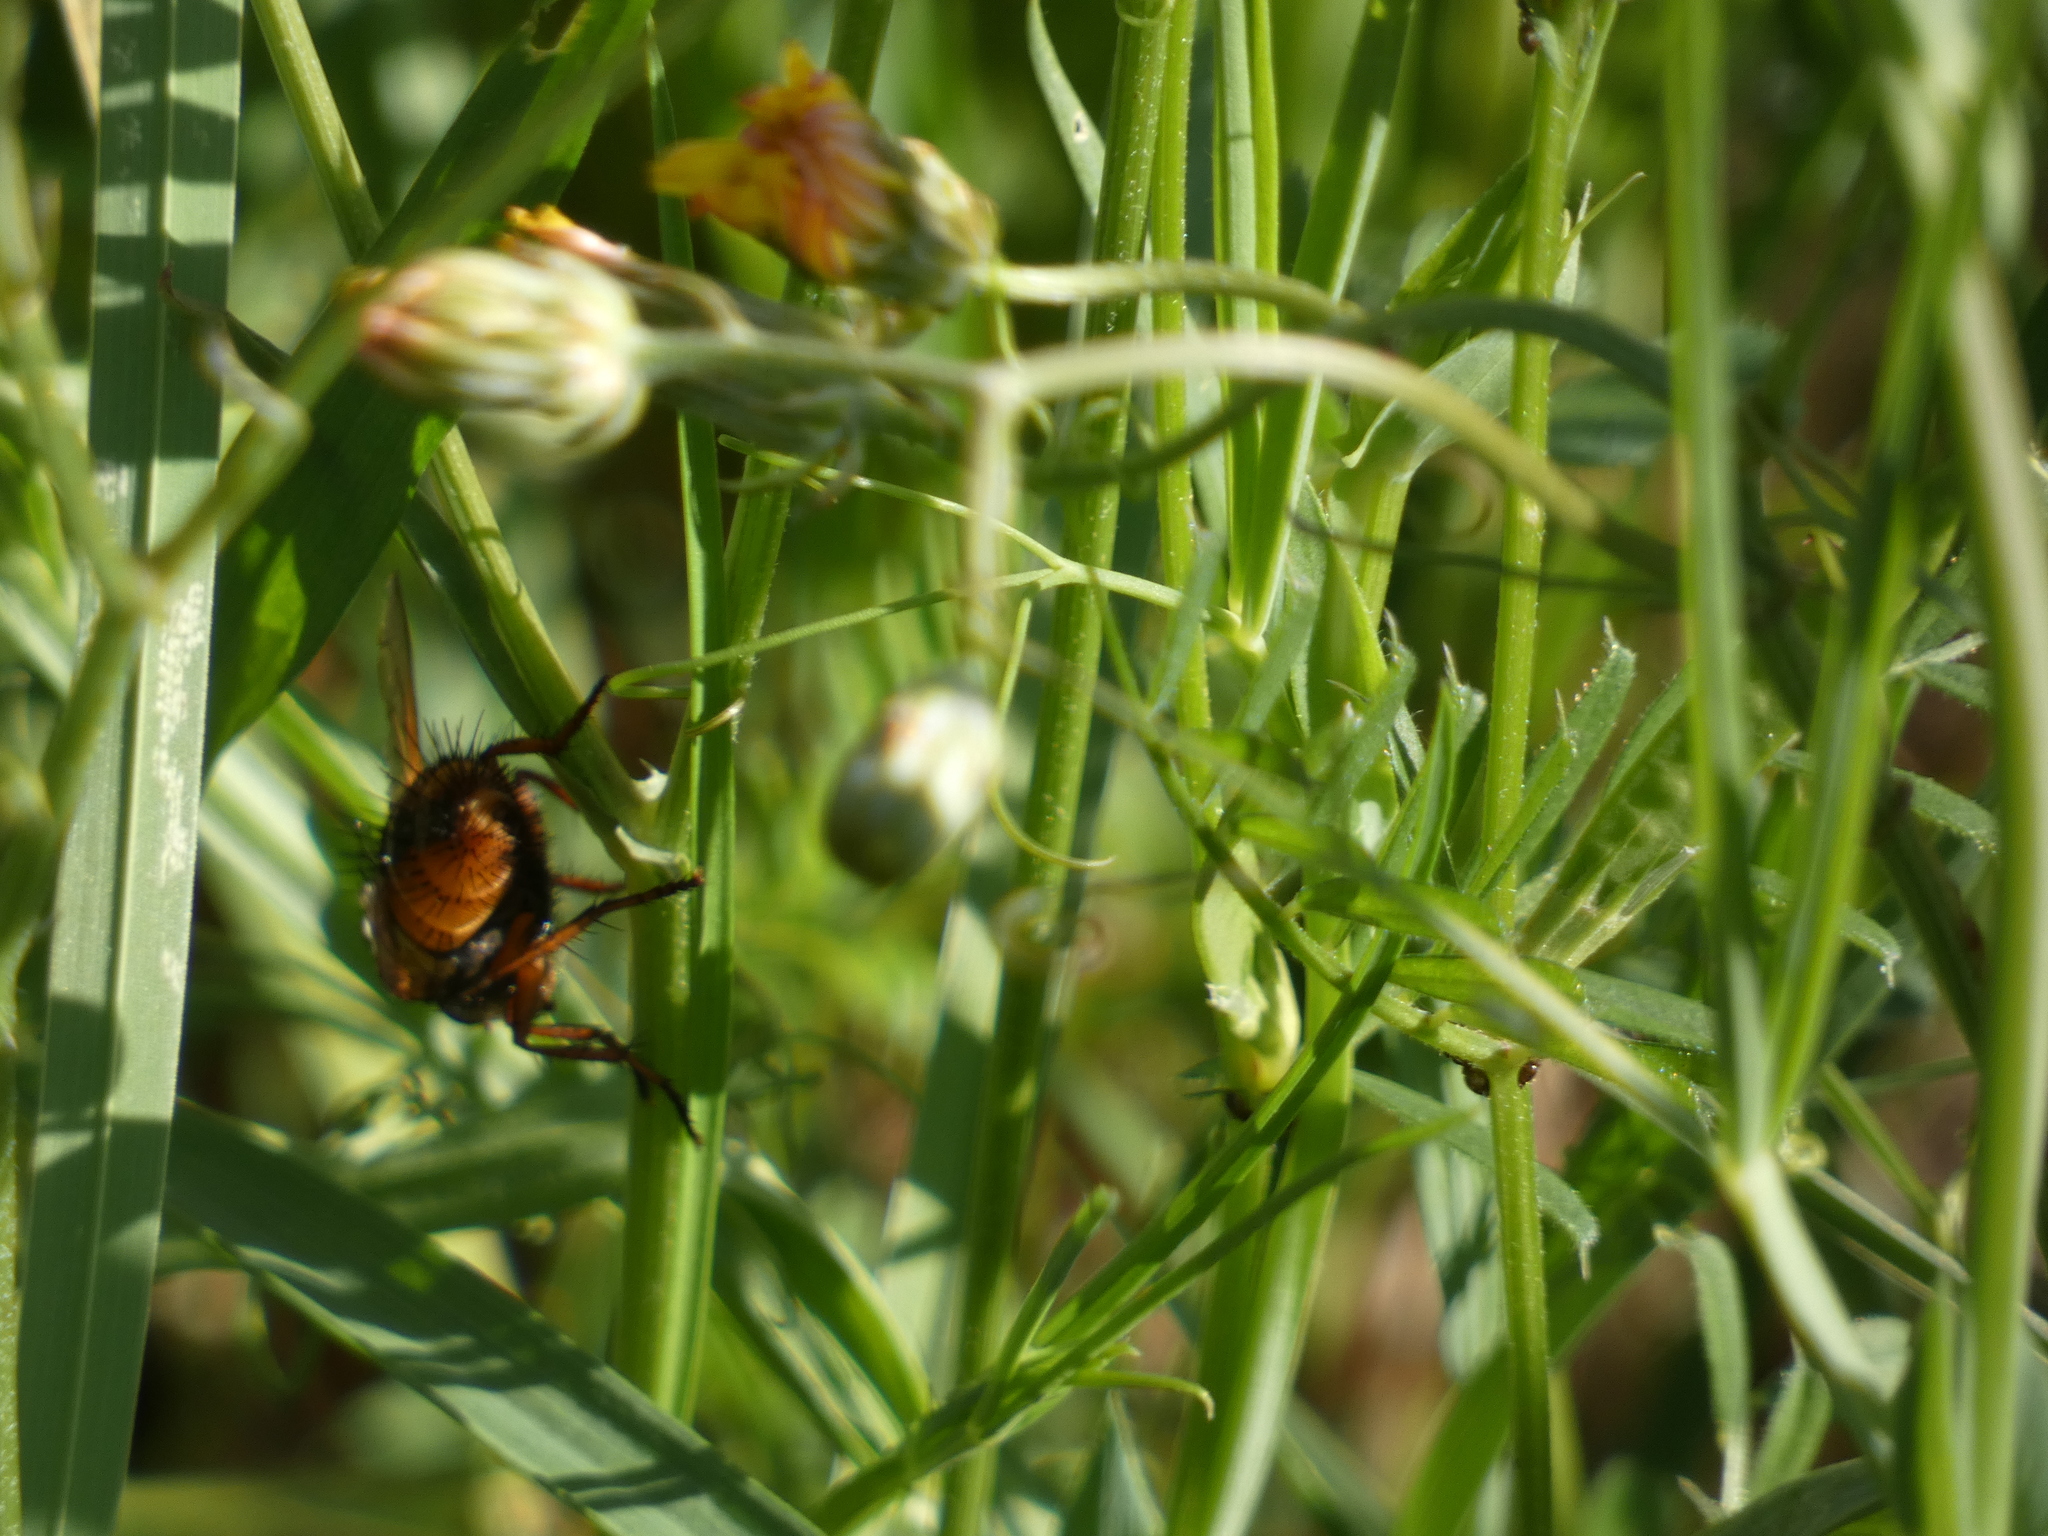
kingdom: Animalia
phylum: Arthropoda
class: Insecta
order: Diptera
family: Tachinidae
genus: Tachina
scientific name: Tachina fera
